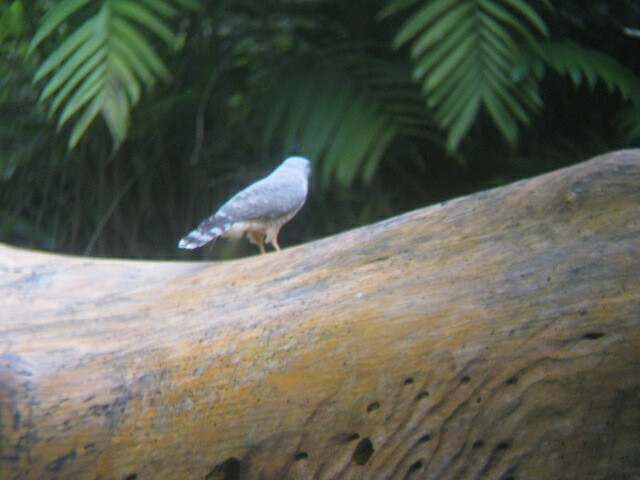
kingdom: Animalia
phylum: Chordata
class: Aves
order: Accipitriformes
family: Accipitridae
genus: Rupornis
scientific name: Rupornis magnirostris
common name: Roadside hawk
